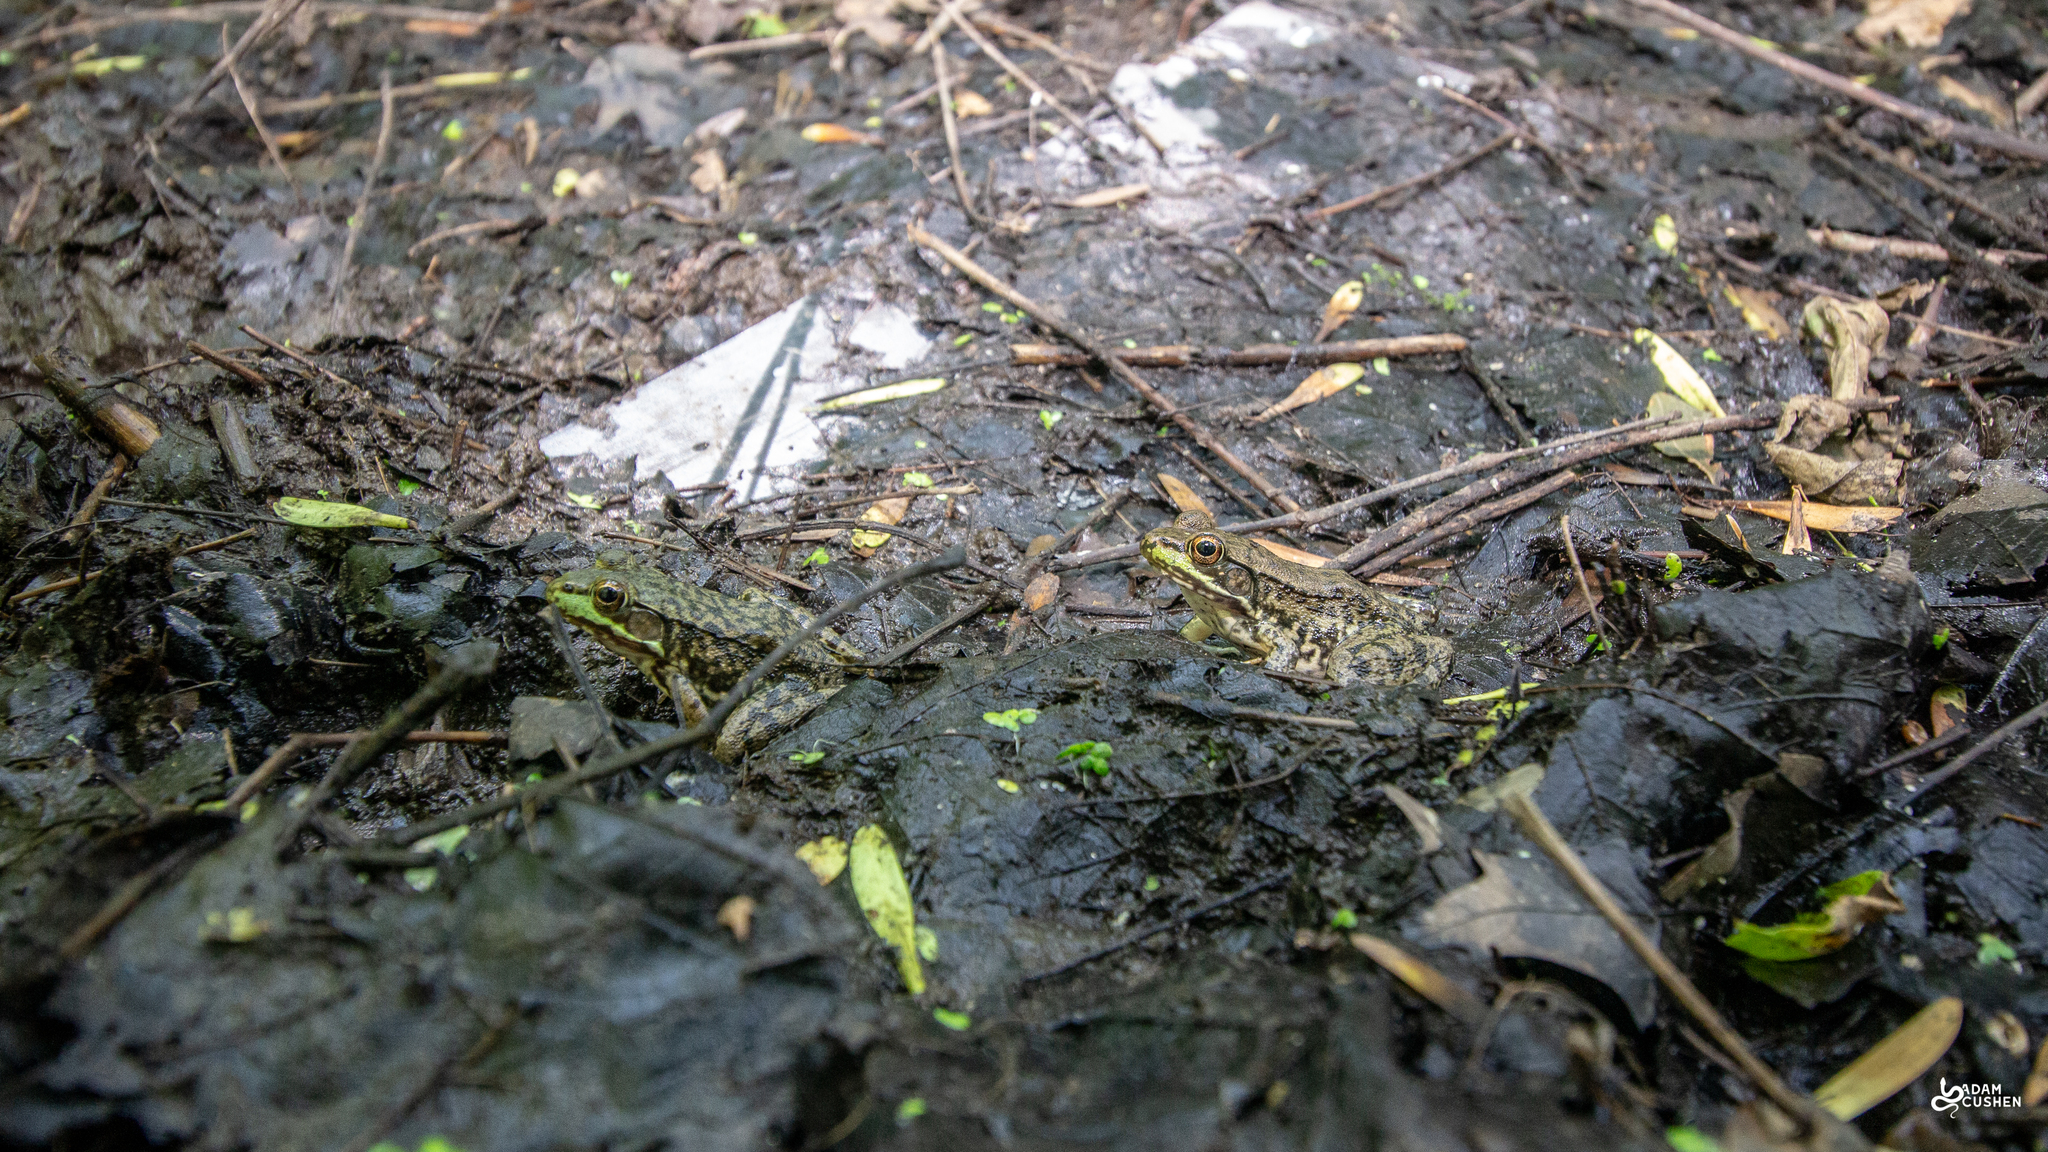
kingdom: Animalia
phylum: Chordata
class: Amphibia
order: Anura
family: Ranidae
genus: Lithobates
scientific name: Lithobates clamitans
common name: Green frog
